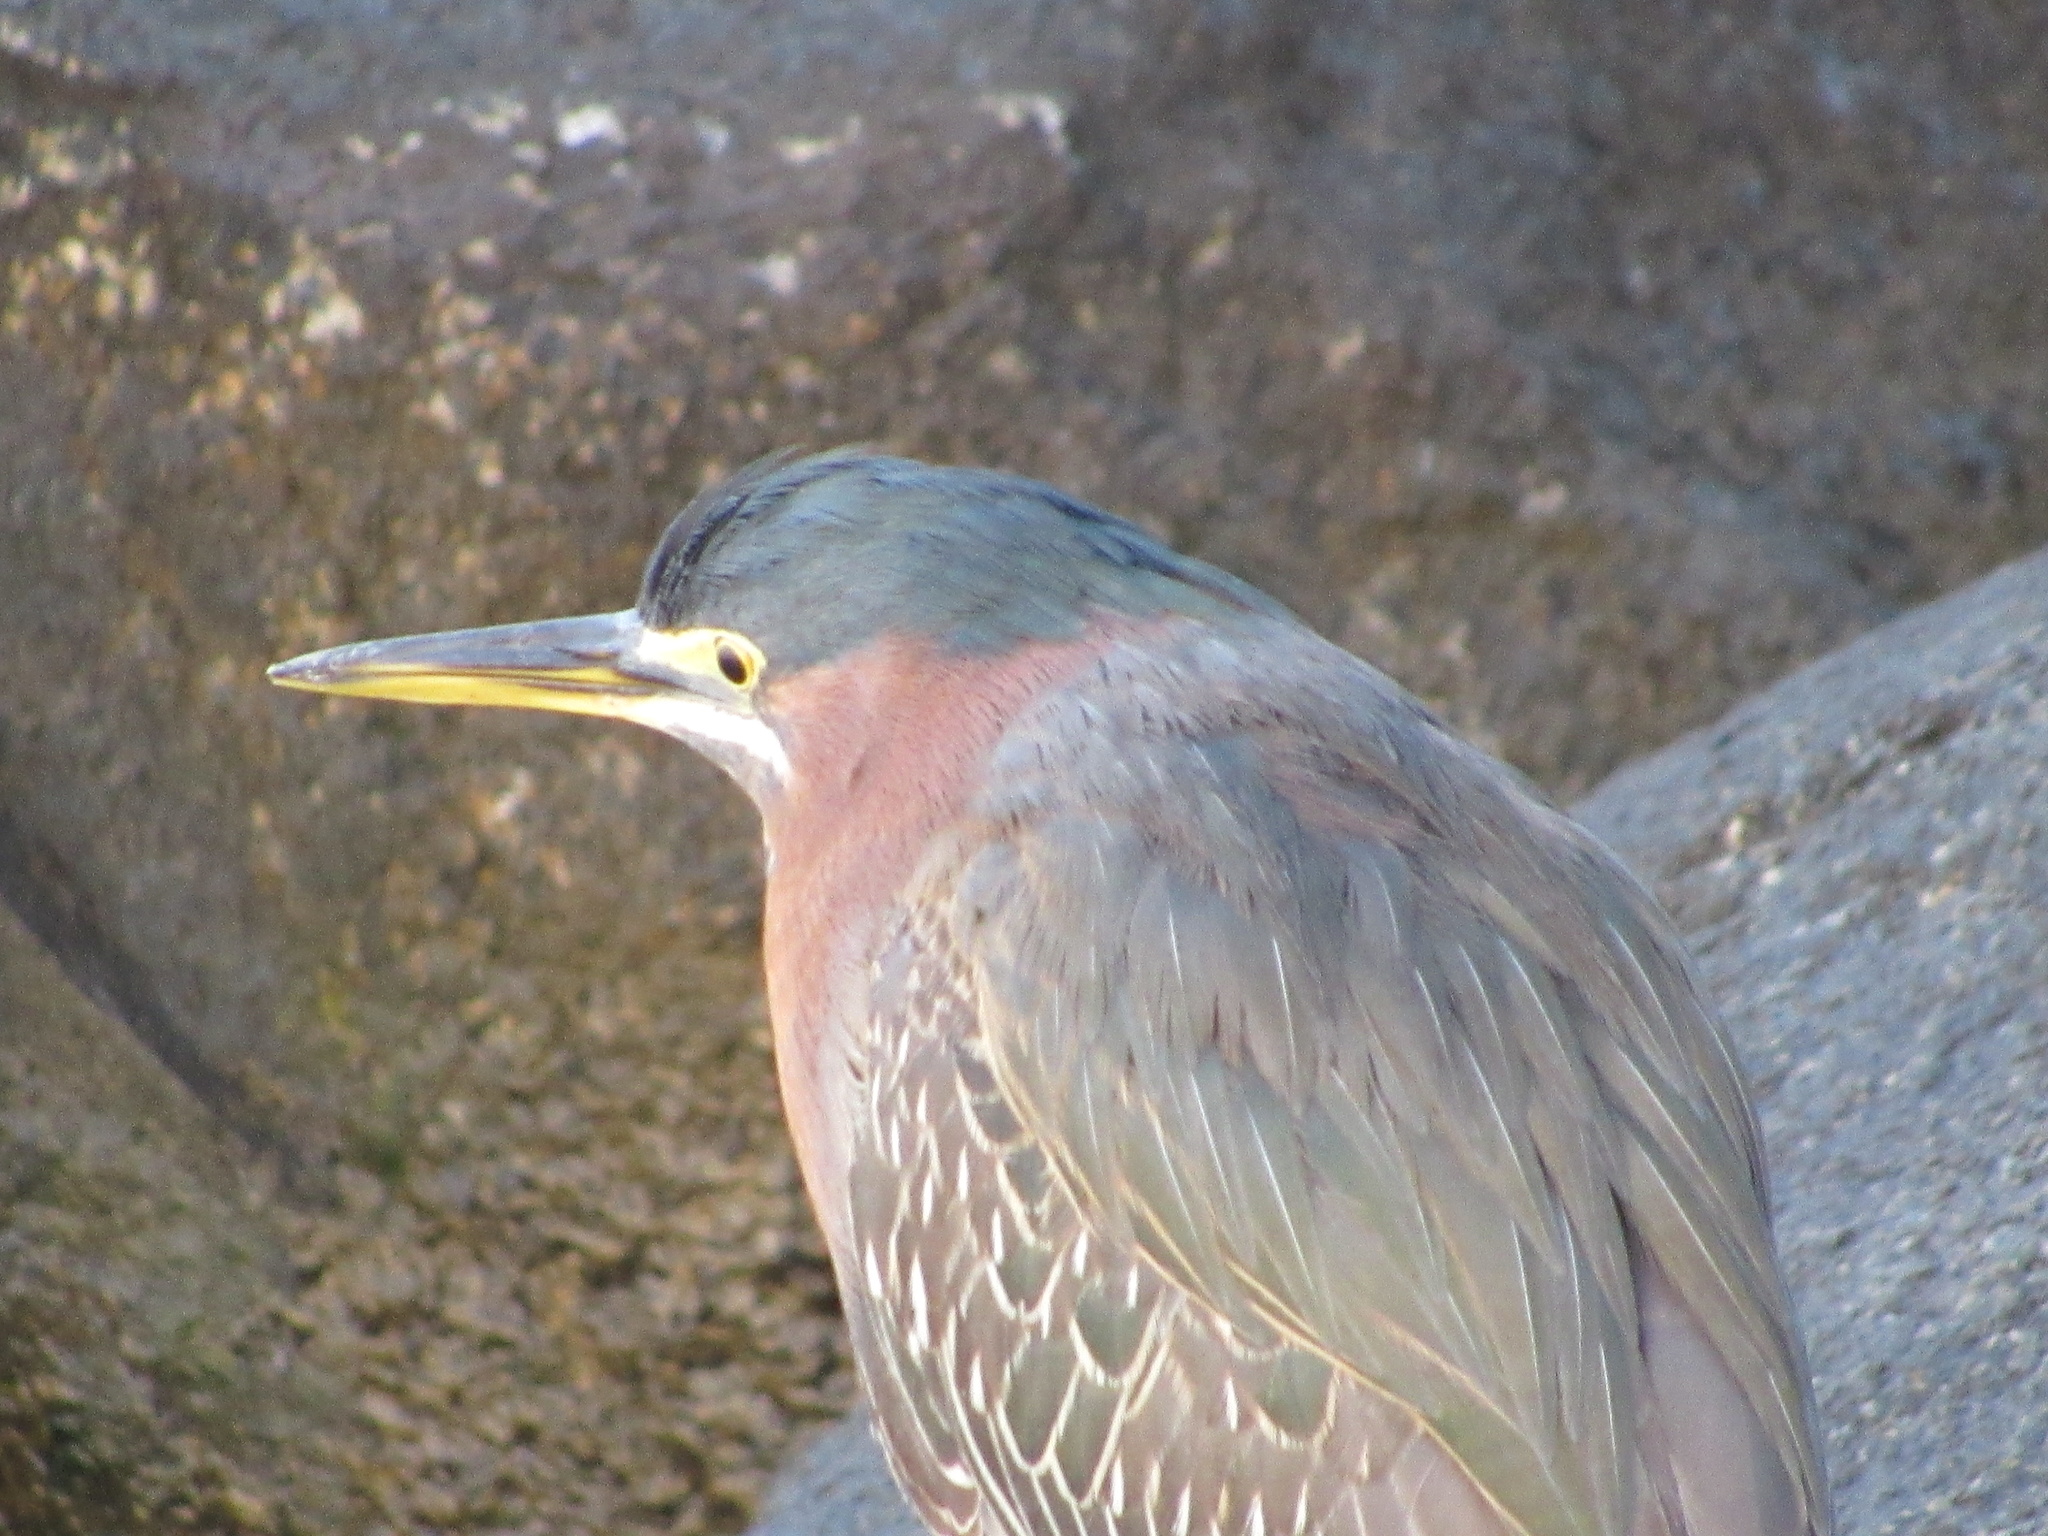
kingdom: Animalia
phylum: Chordata
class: Aves
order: Pelecaniformes
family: Ardeidae
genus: Butorides
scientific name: Butorides virescens
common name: Green heron
